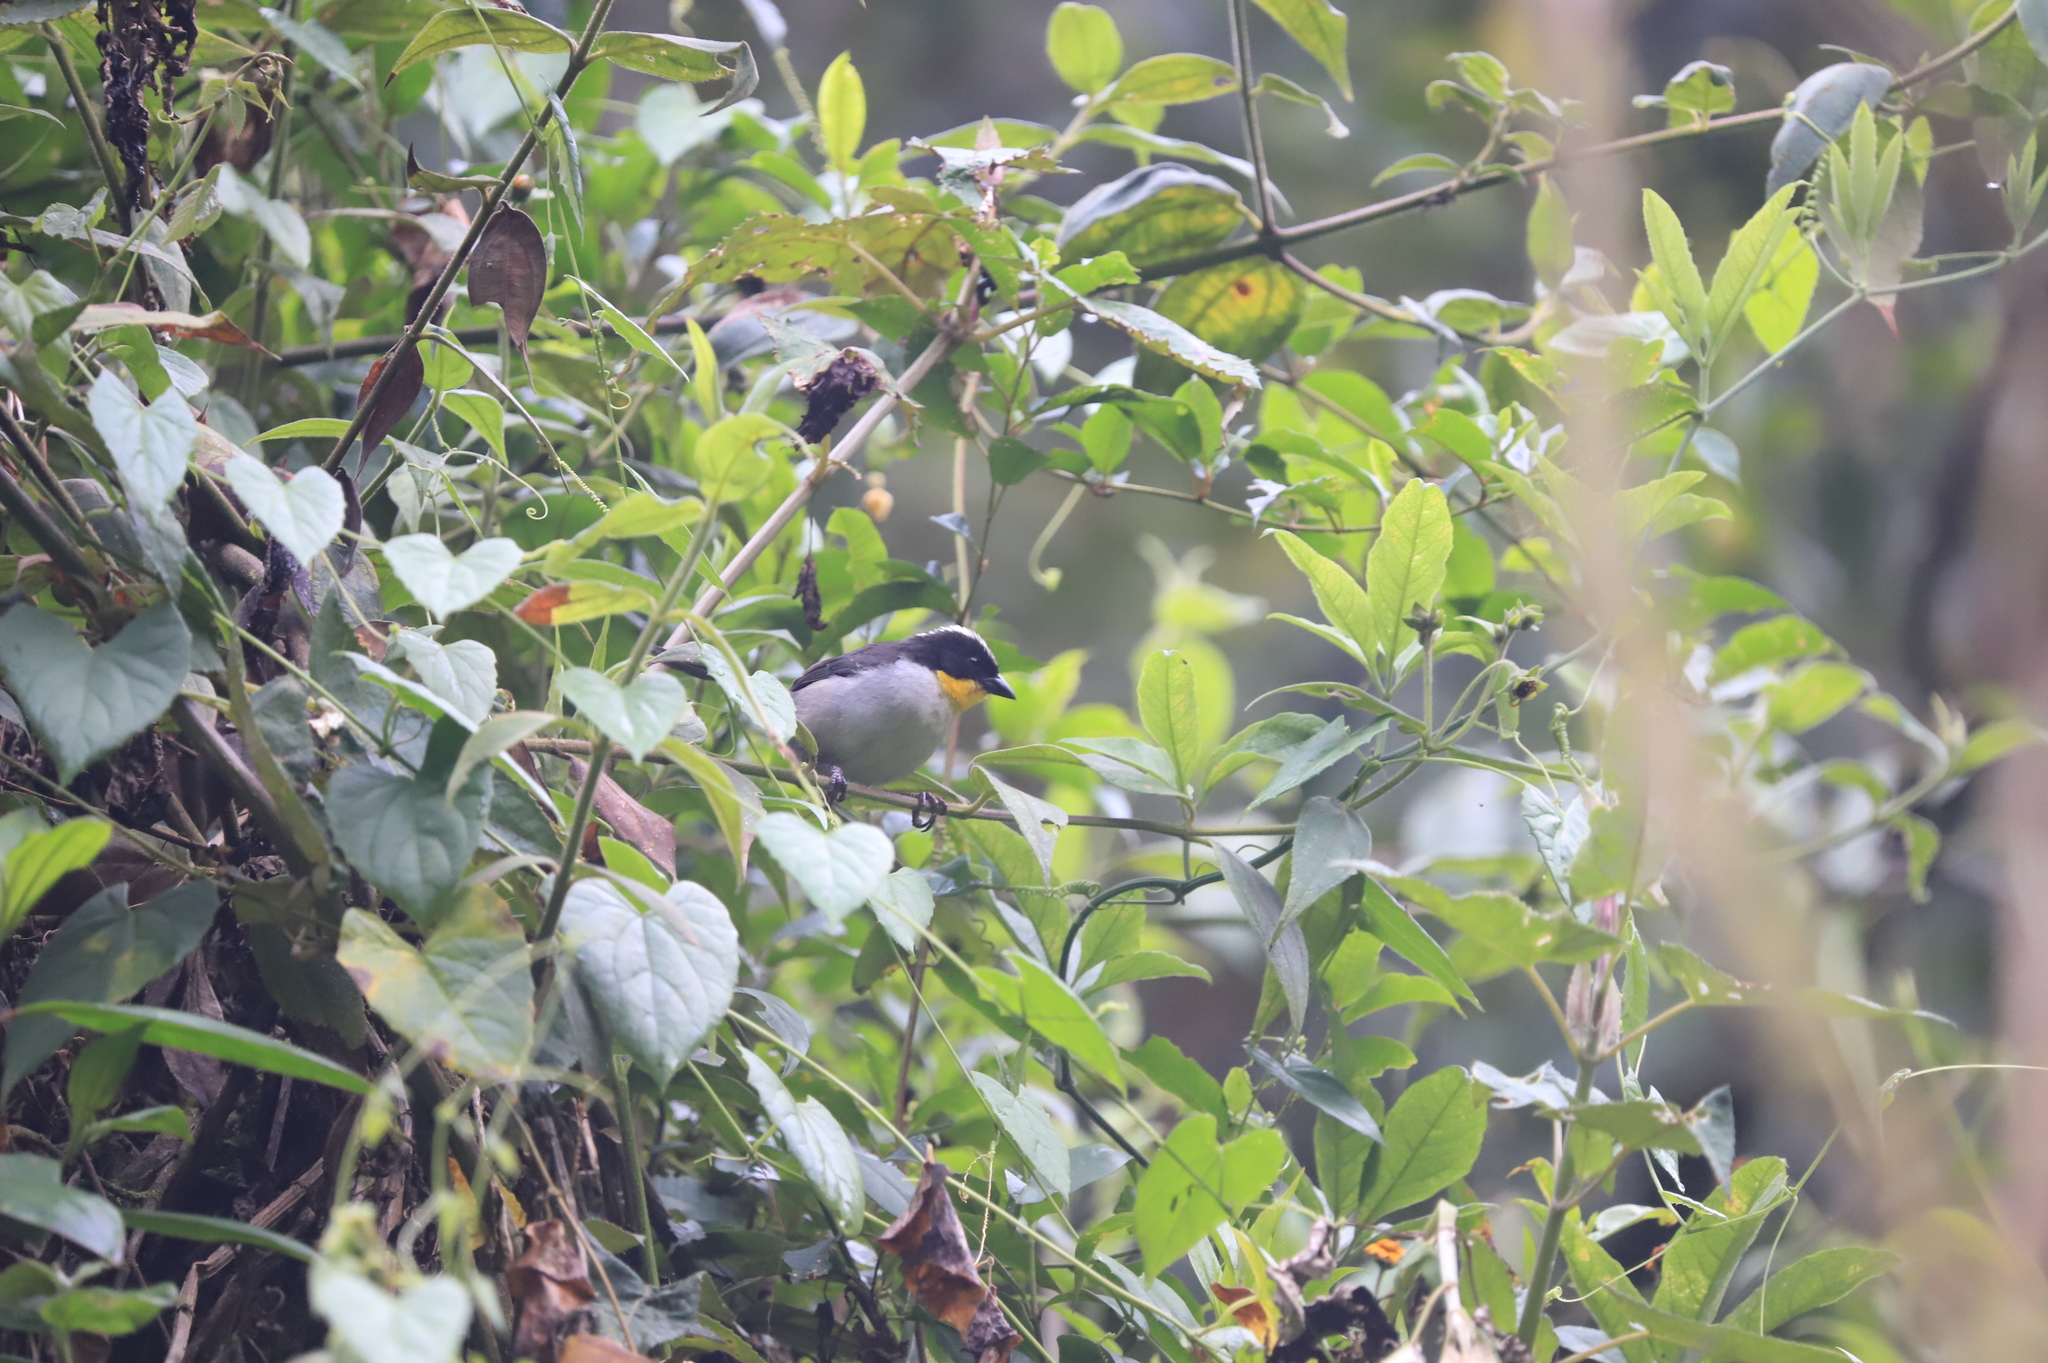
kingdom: Animalia
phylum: Chordata
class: Aves
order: Passeriformes
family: Passerellidae
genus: Atlapetes
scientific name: Atlapetes albinucha
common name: White-naped brush-finch
